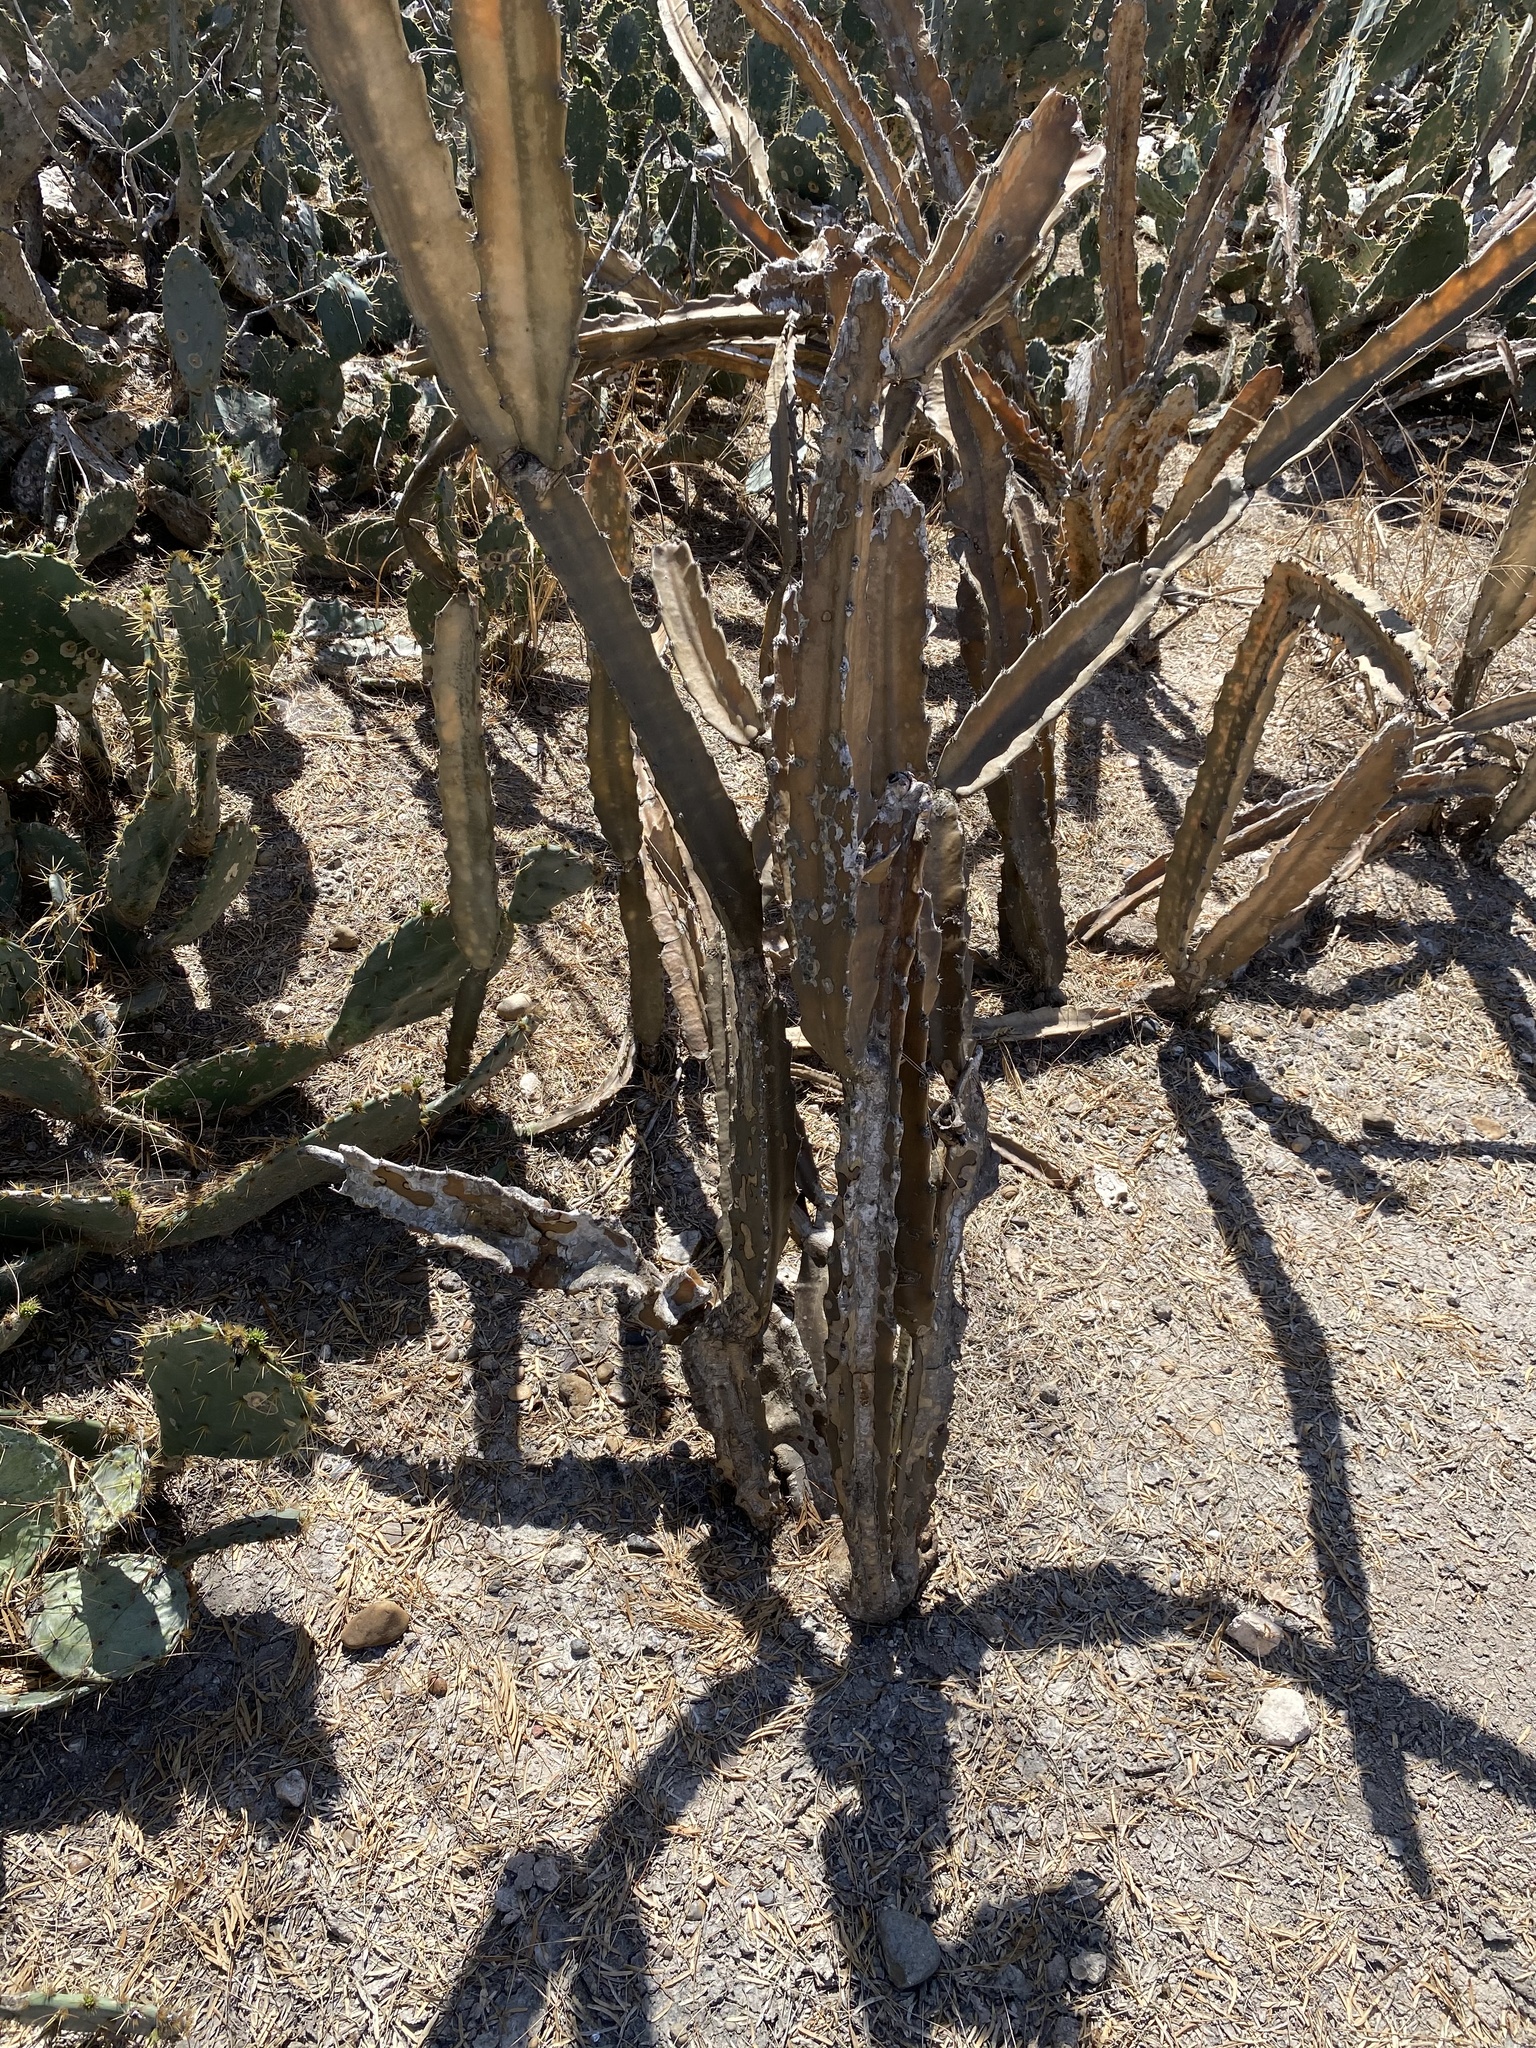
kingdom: Plantae
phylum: Tracheophyta
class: Magnoliopsida
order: Caryophyllales
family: Cactaceae
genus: Acanthocereus
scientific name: Acanthocereus tetragonus
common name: Triangle cactus
